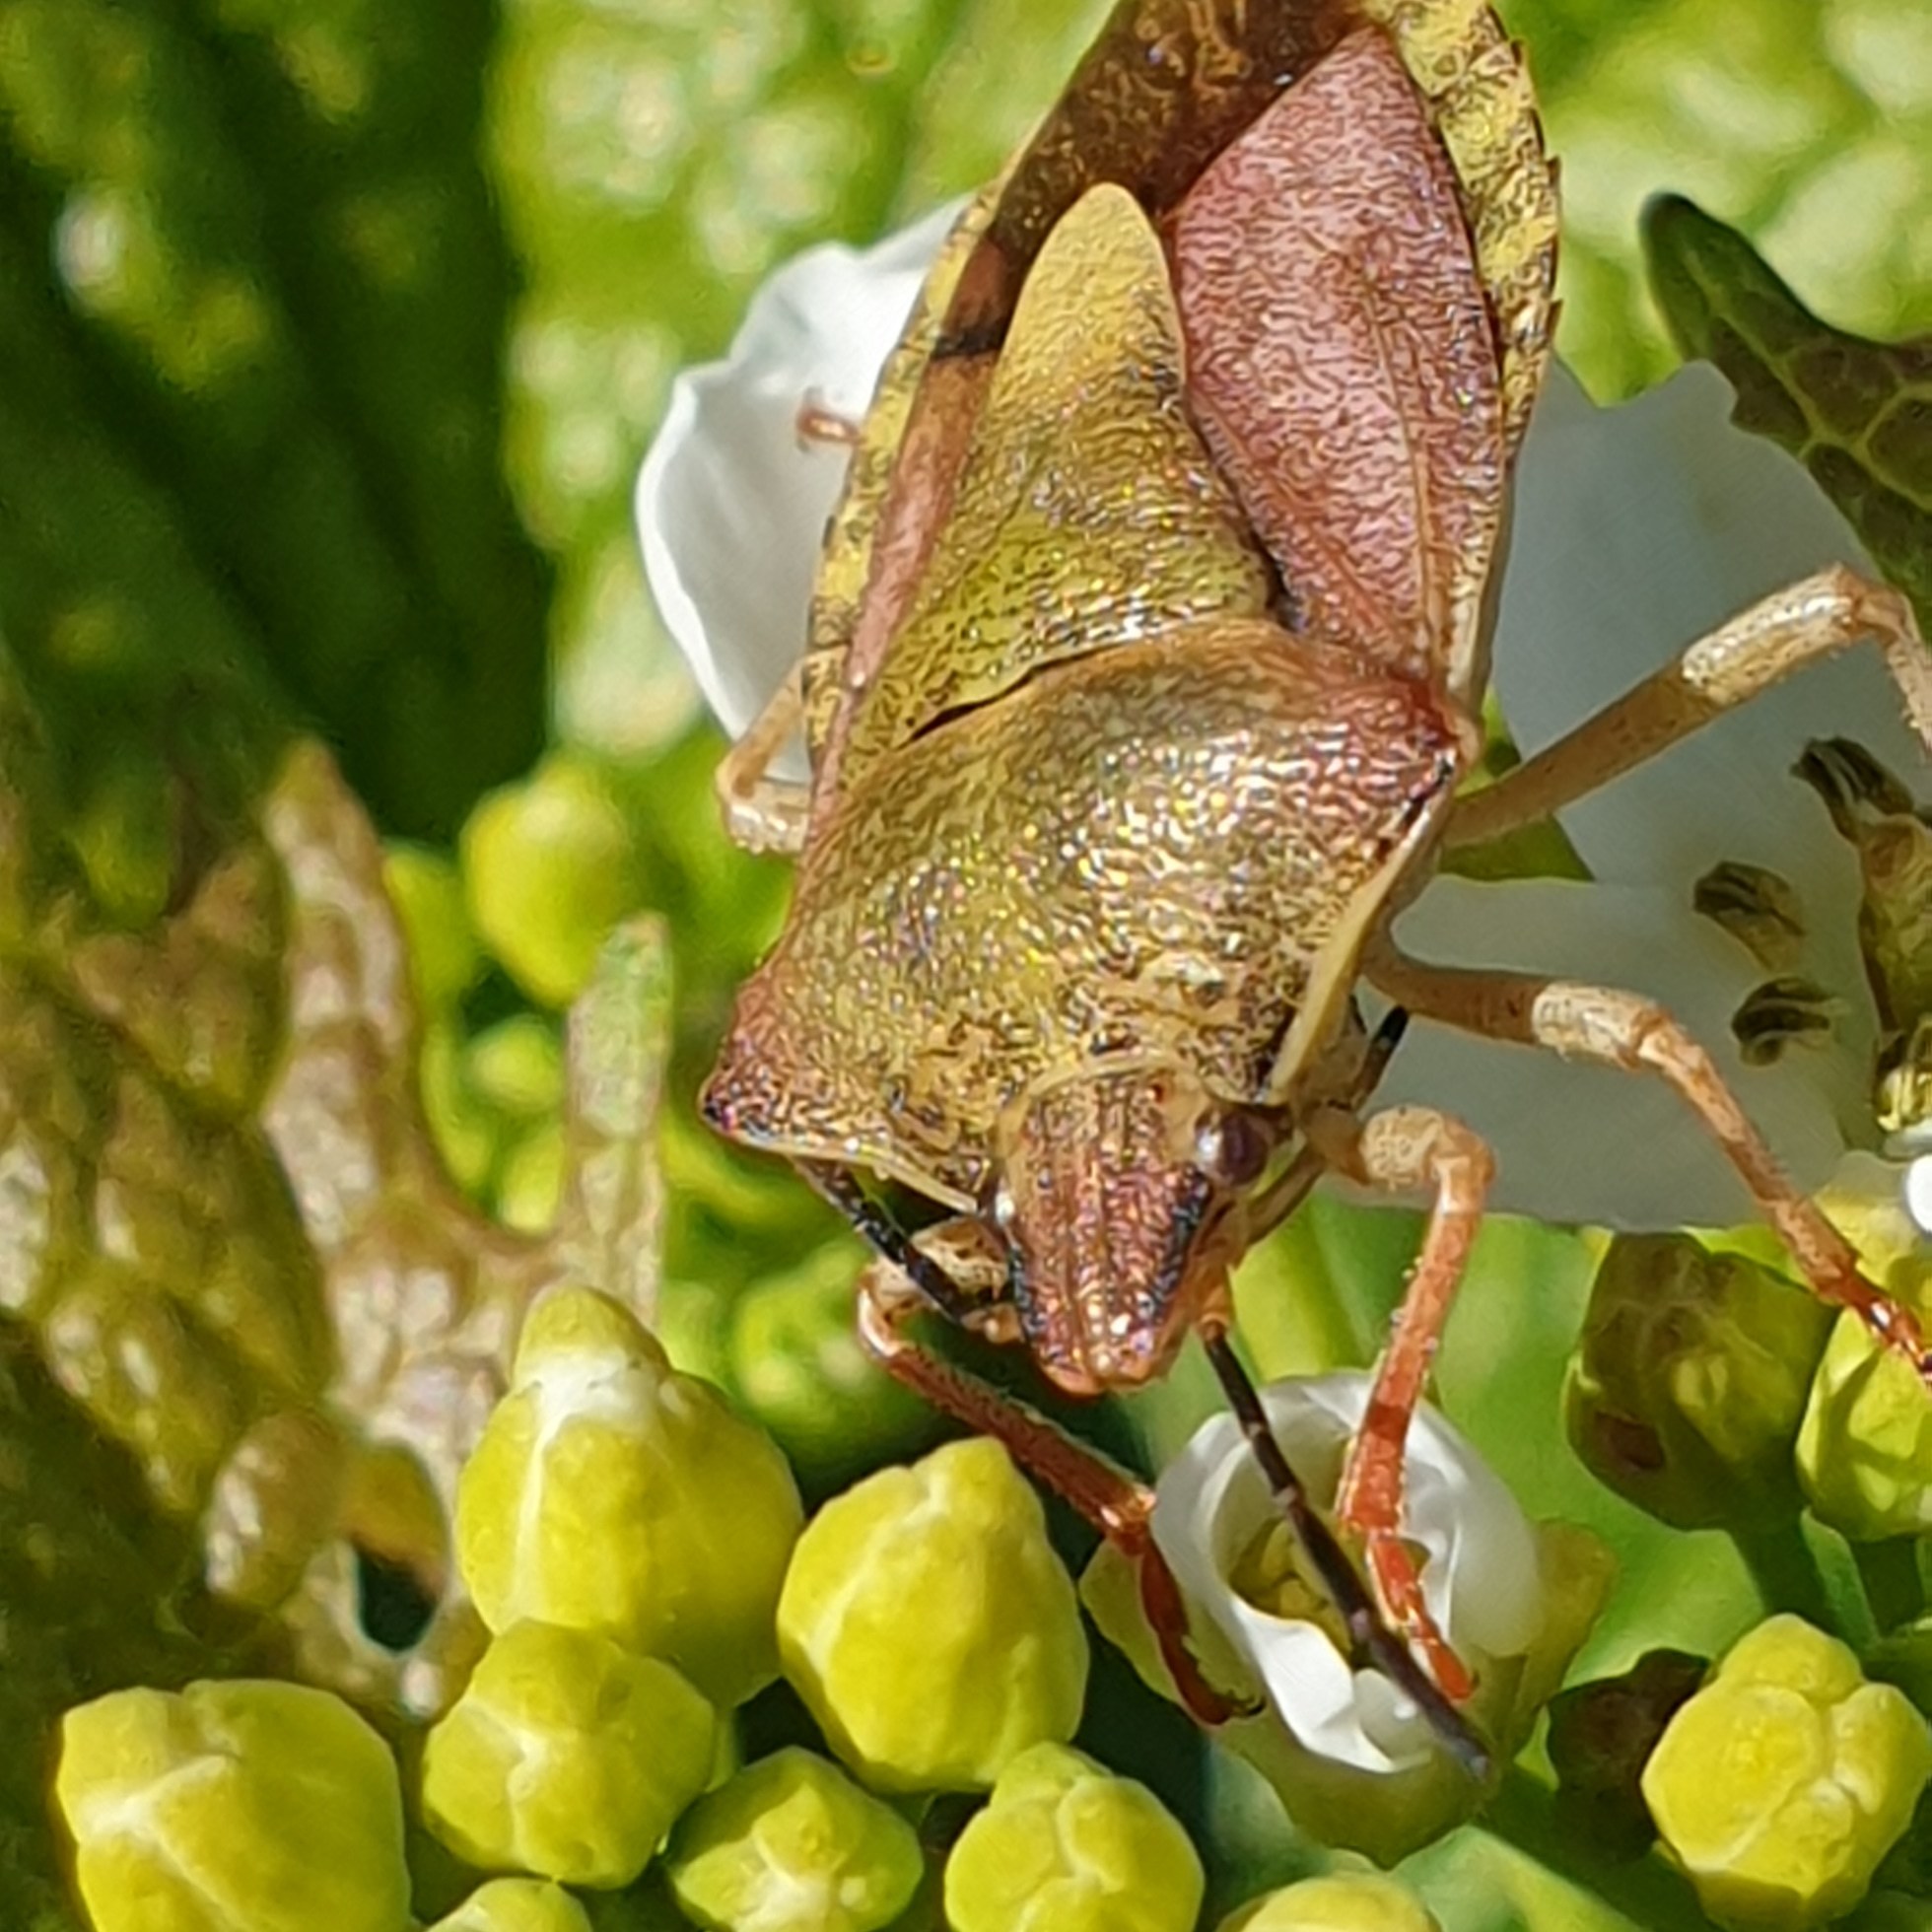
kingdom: Animalia
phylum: Arthropoda
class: Insecta
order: Hemiptera
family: Pentatomidae
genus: Carpocoris
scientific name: Carpocoris purpureipennis
